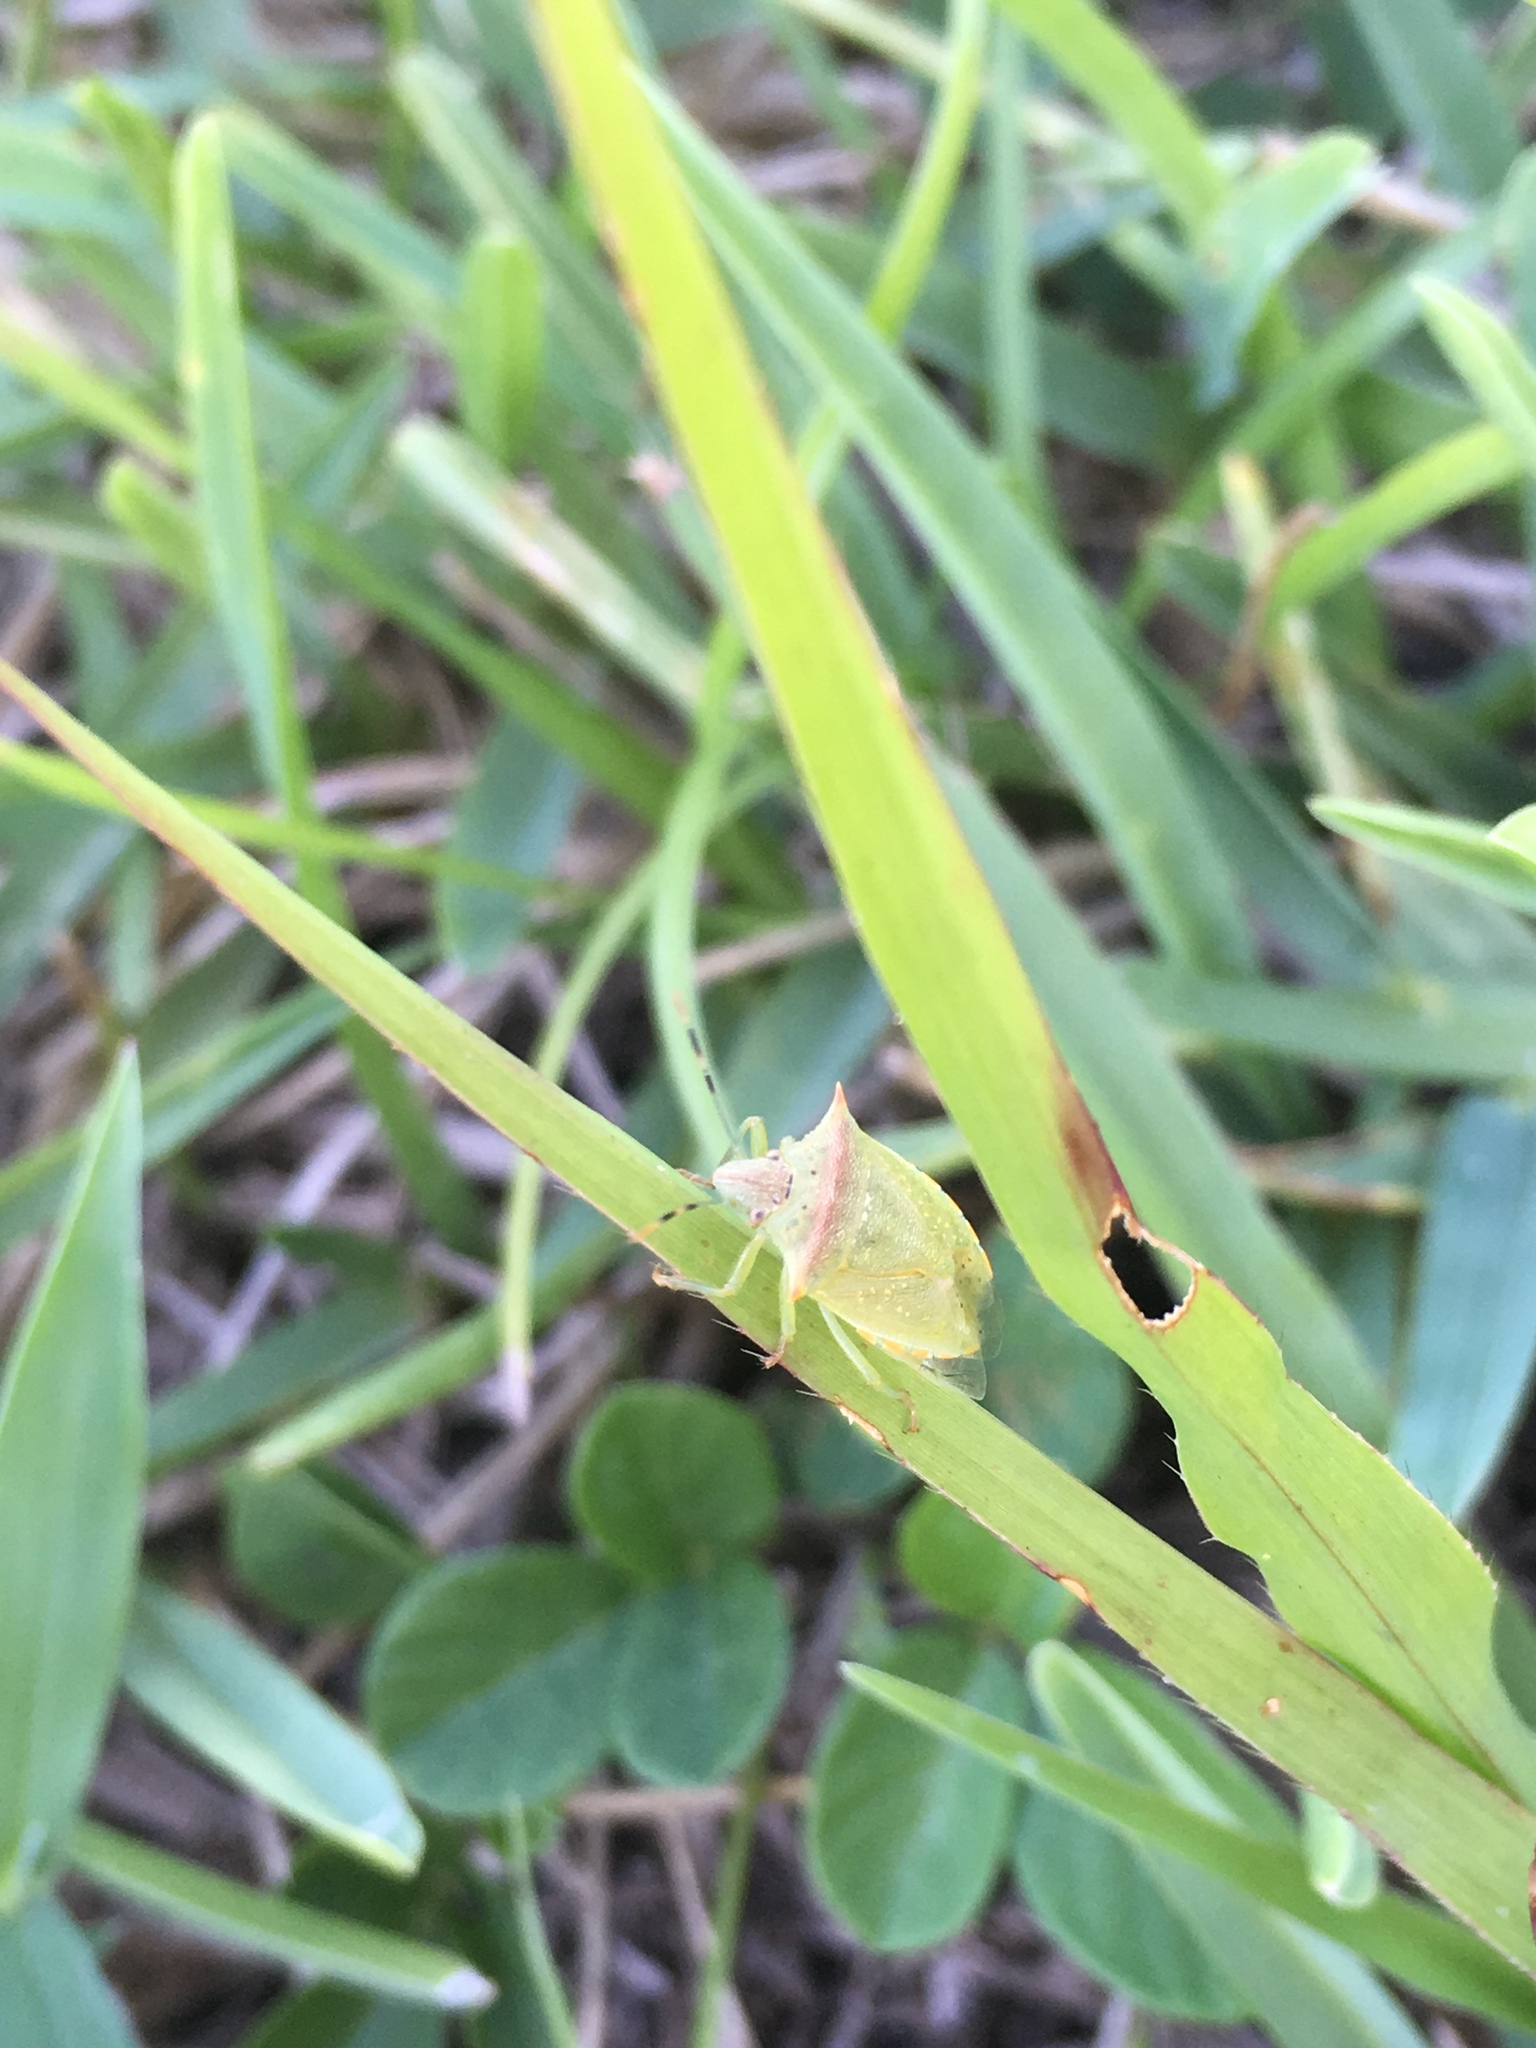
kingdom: Animalia
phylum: Arthropoda
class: Insecta
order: Hemiptera
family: Pentatomidae
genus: Thyanta
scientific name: Thyanta perditor
